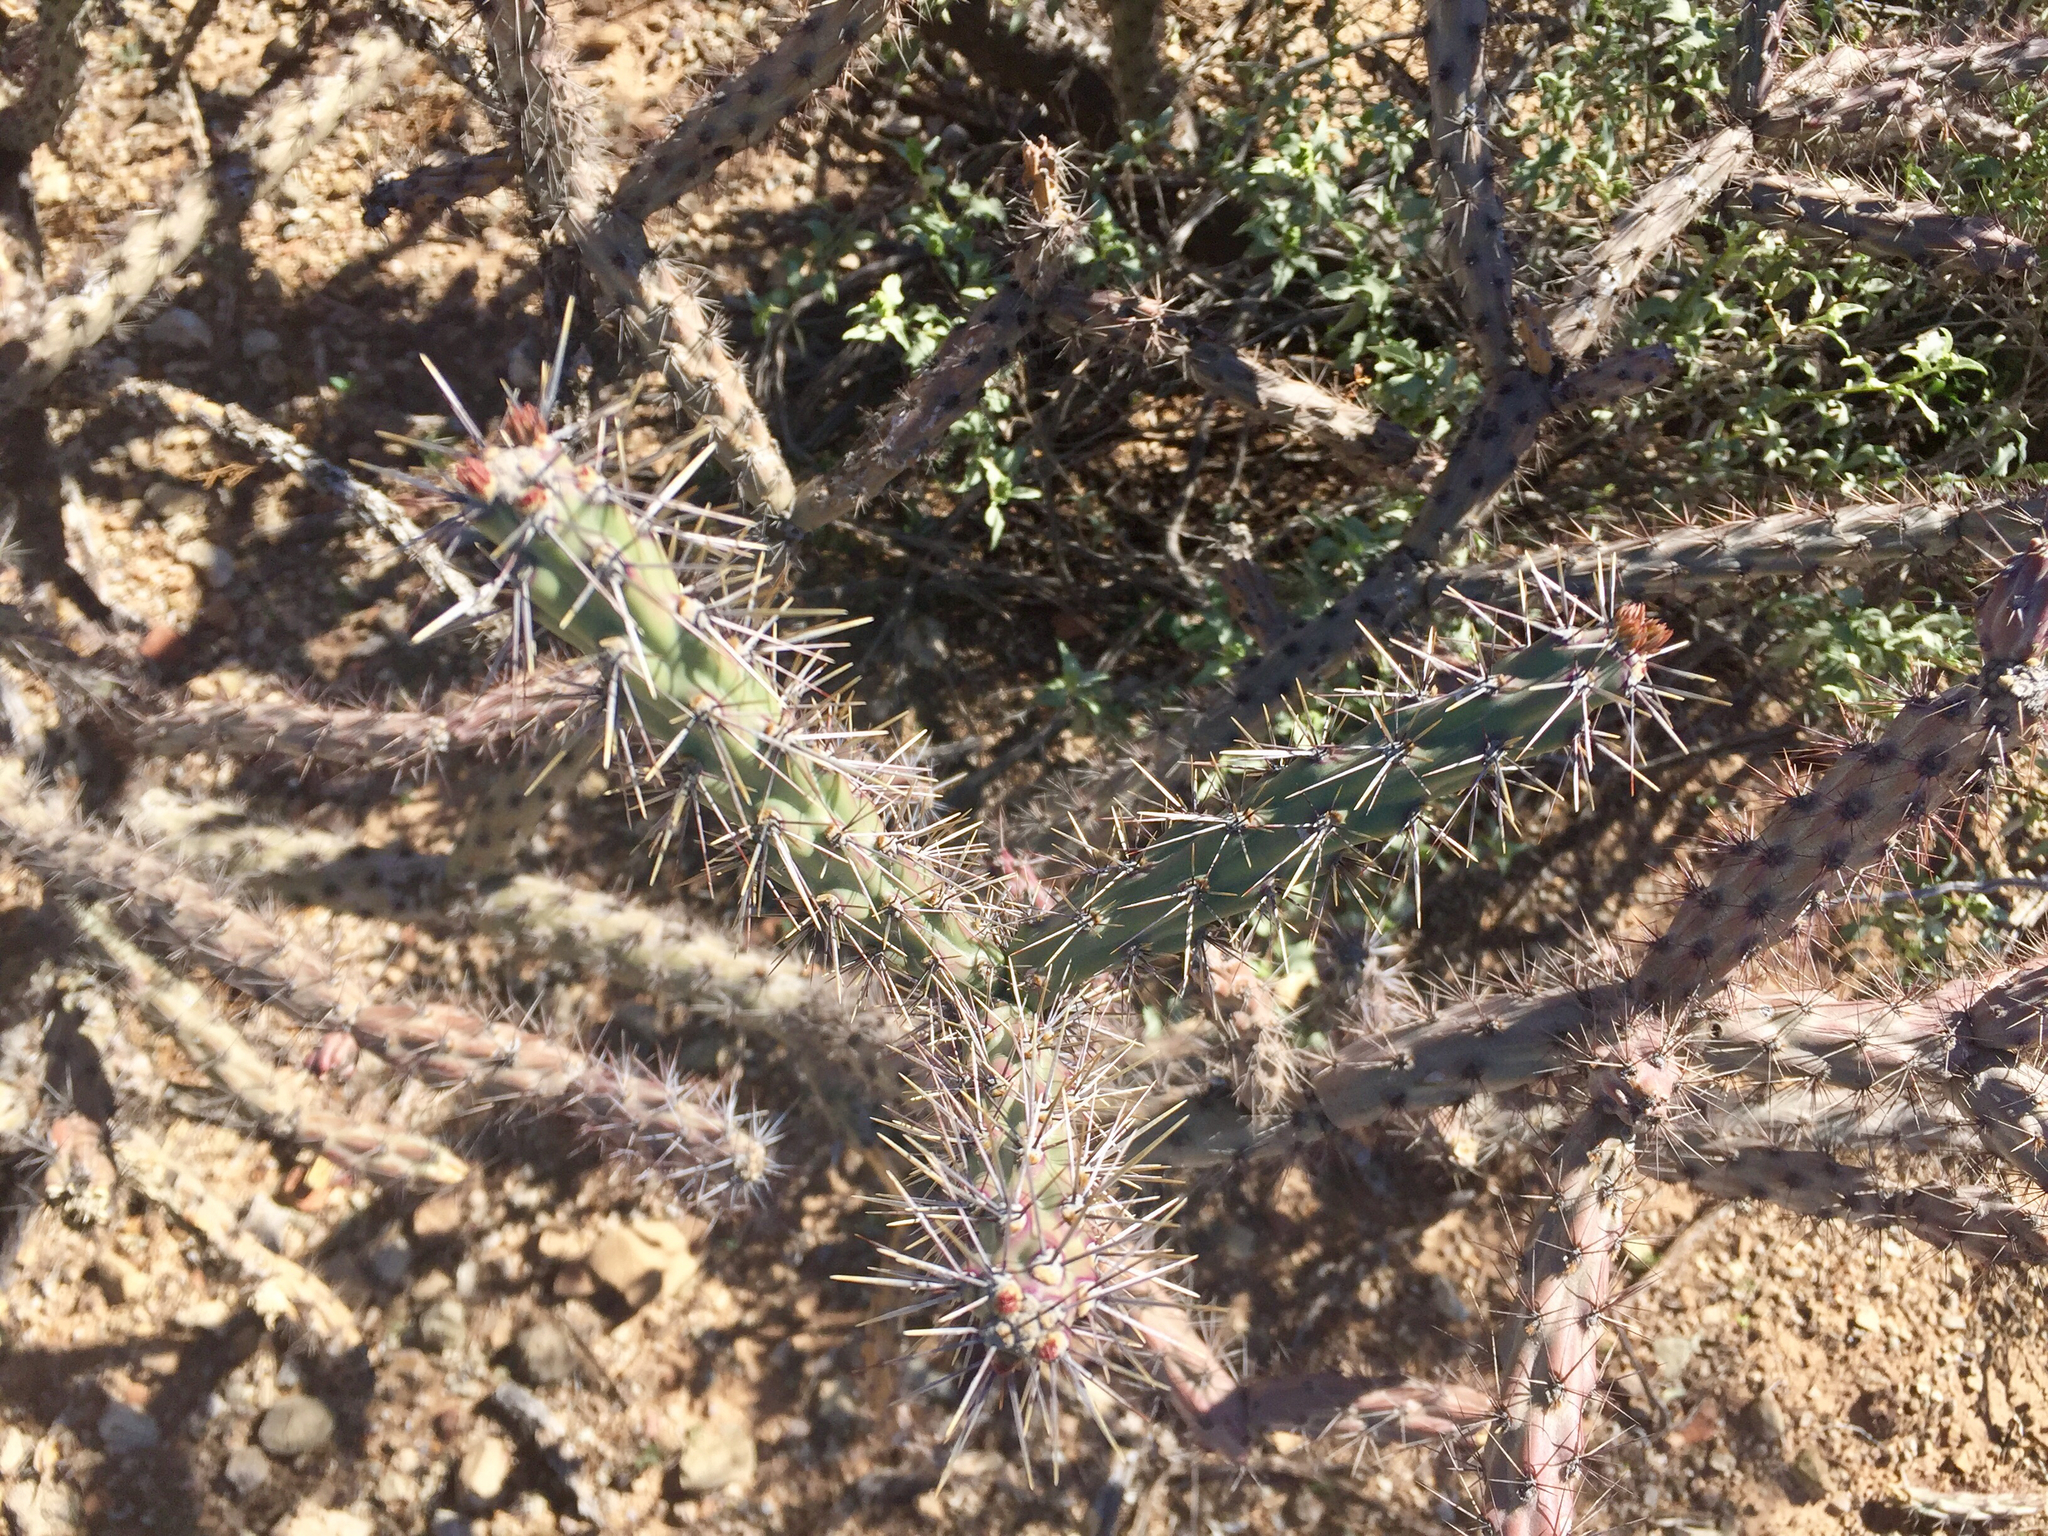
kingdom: Plantae
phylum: Tracheophyta
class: Magnoliopsida
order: Caryophyllales
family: Cactaceae
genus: Cylindropuntia
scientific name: Cylindropuntia acanthocarpa
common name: Buckhorn cholla
